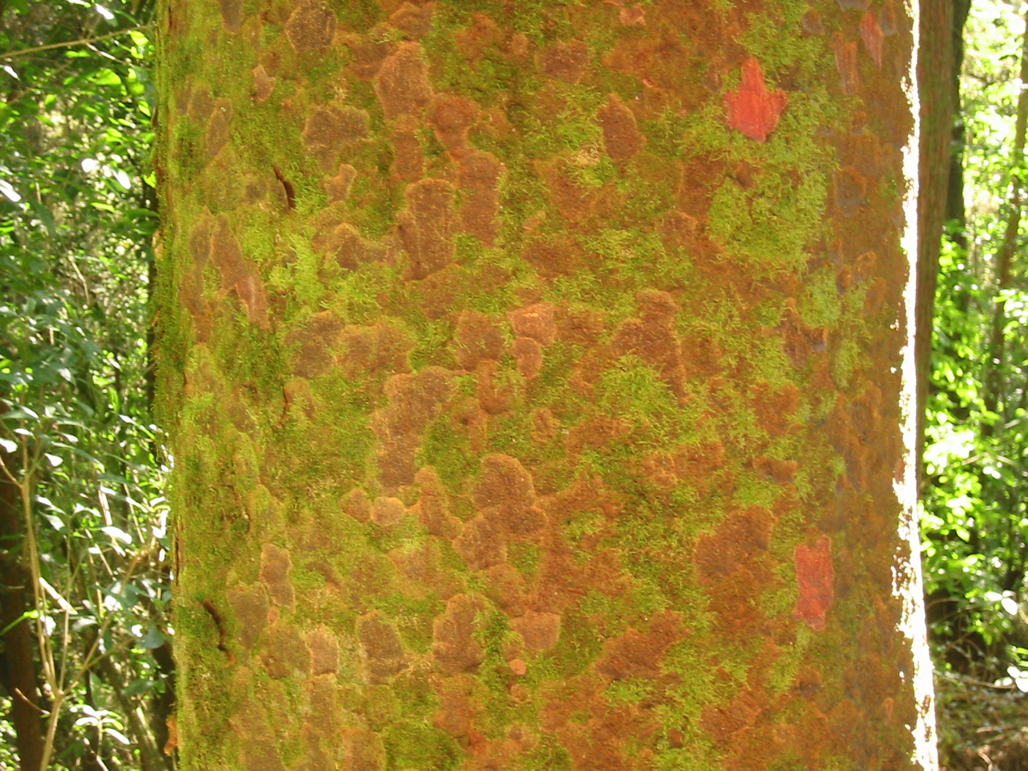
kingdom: Plantae
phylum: Tracheophyta
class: Pinopsida
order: Pinales
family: Podocarpaceae
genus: Prumnopitys
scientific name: Prumnopitys taxifolia
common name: Matai
